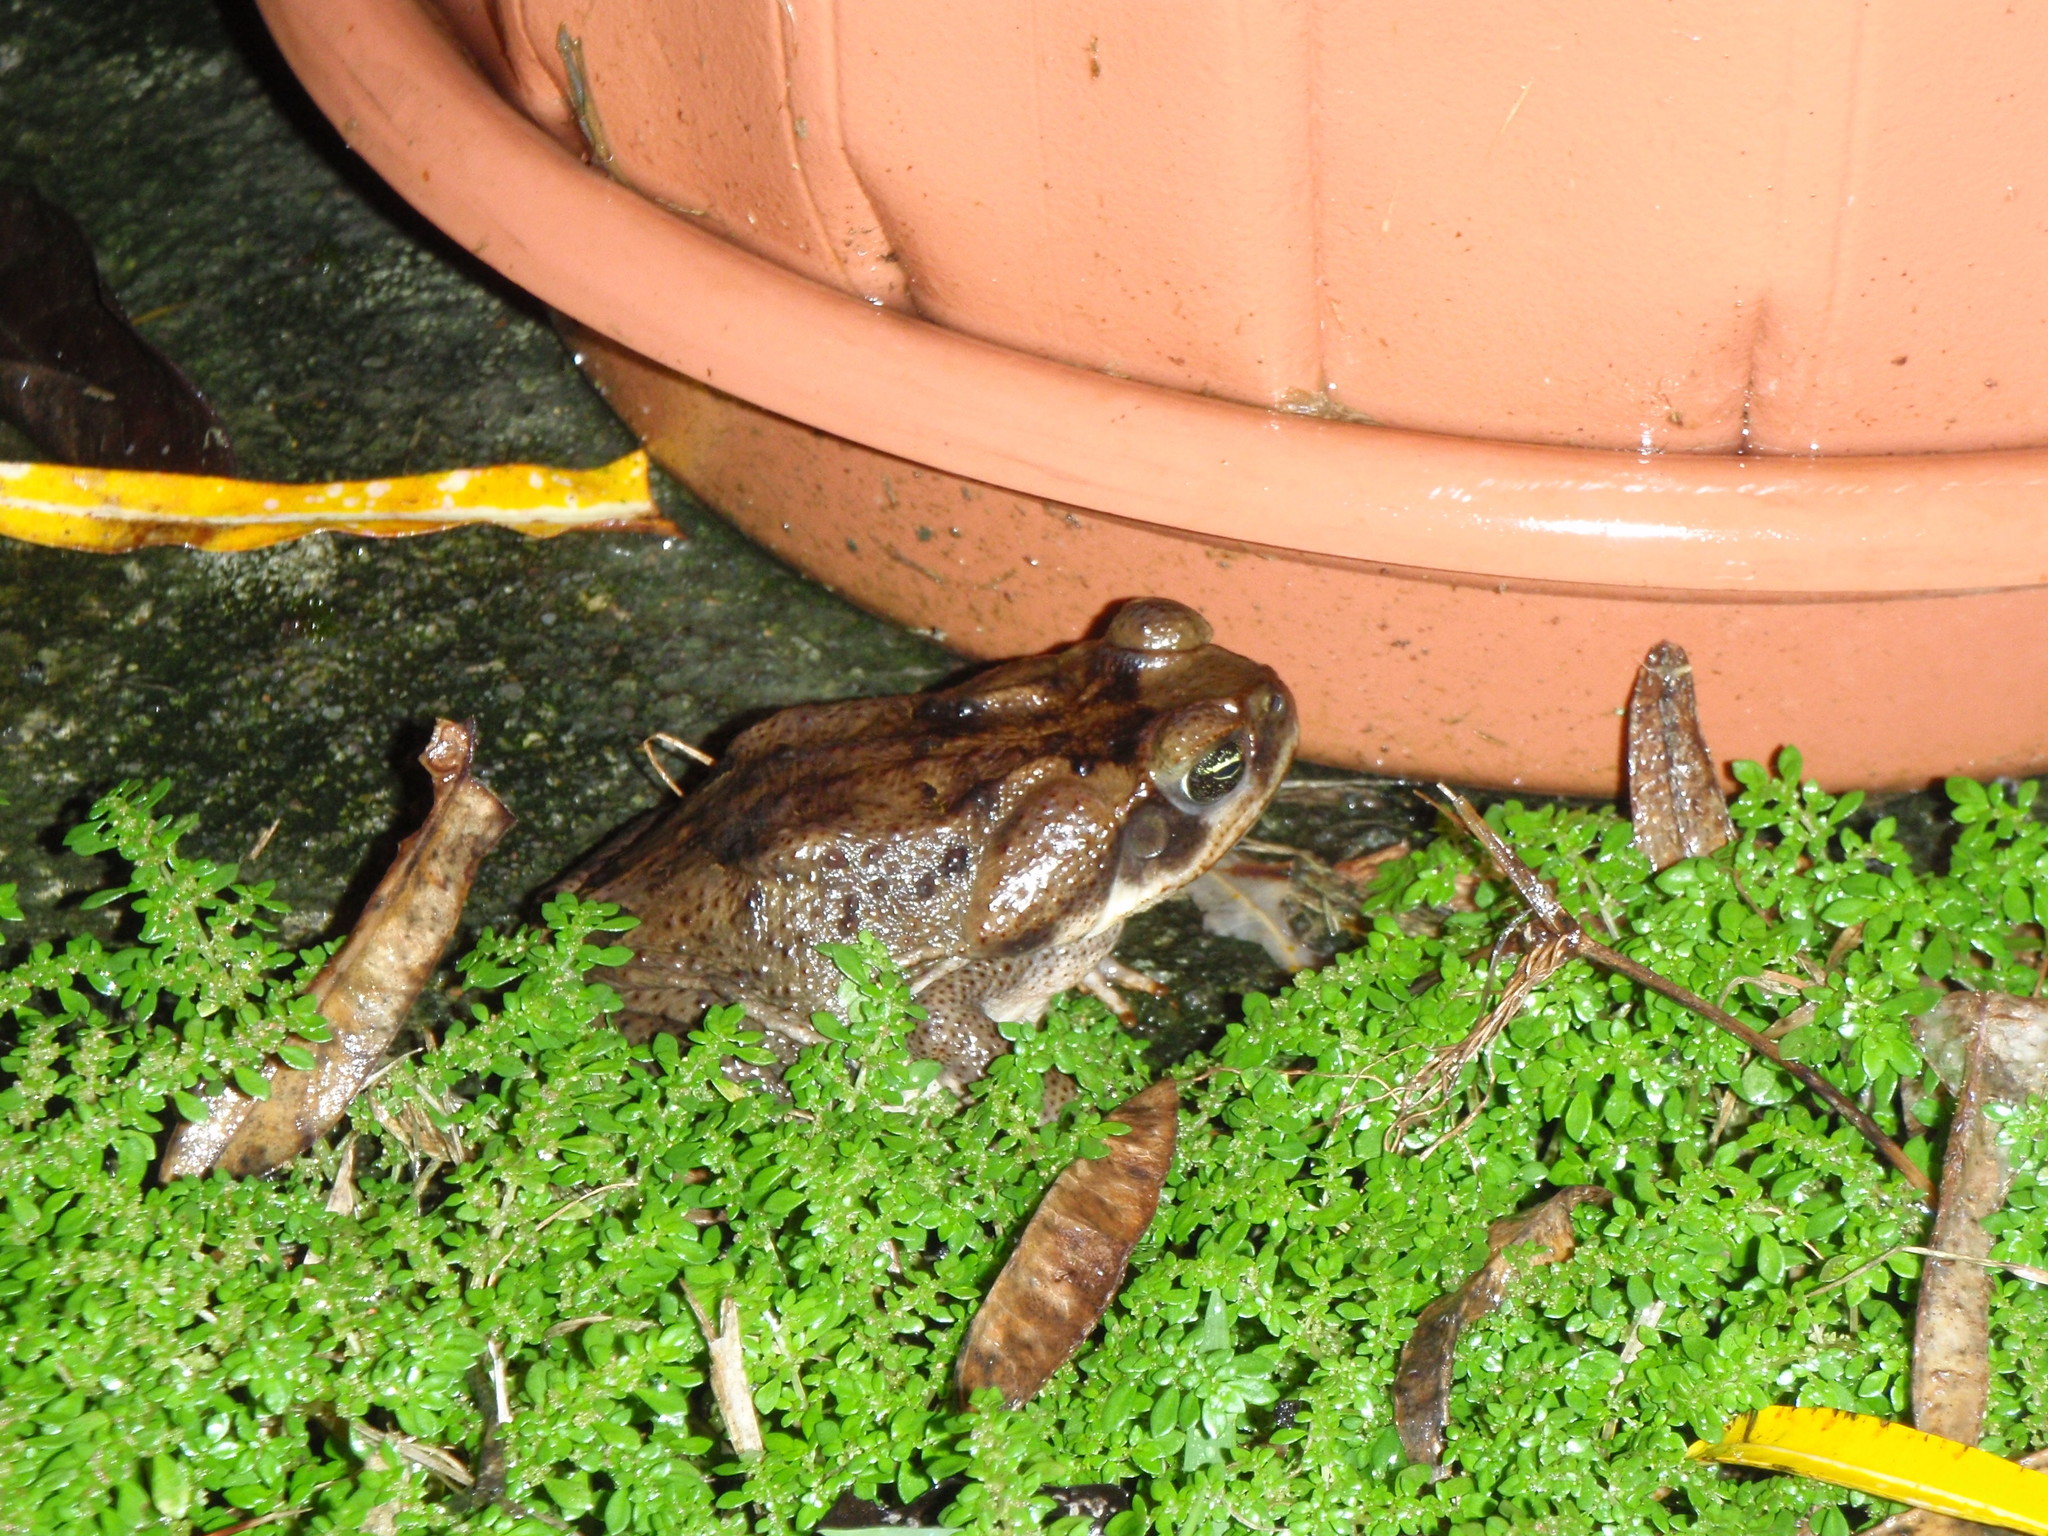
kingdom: Animalia
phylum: Chordata
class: Amphibia
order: Anura
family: Bufonidae
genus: Rhinella
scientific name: Rhinella horribilis
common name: Mesoamerican cane toad
